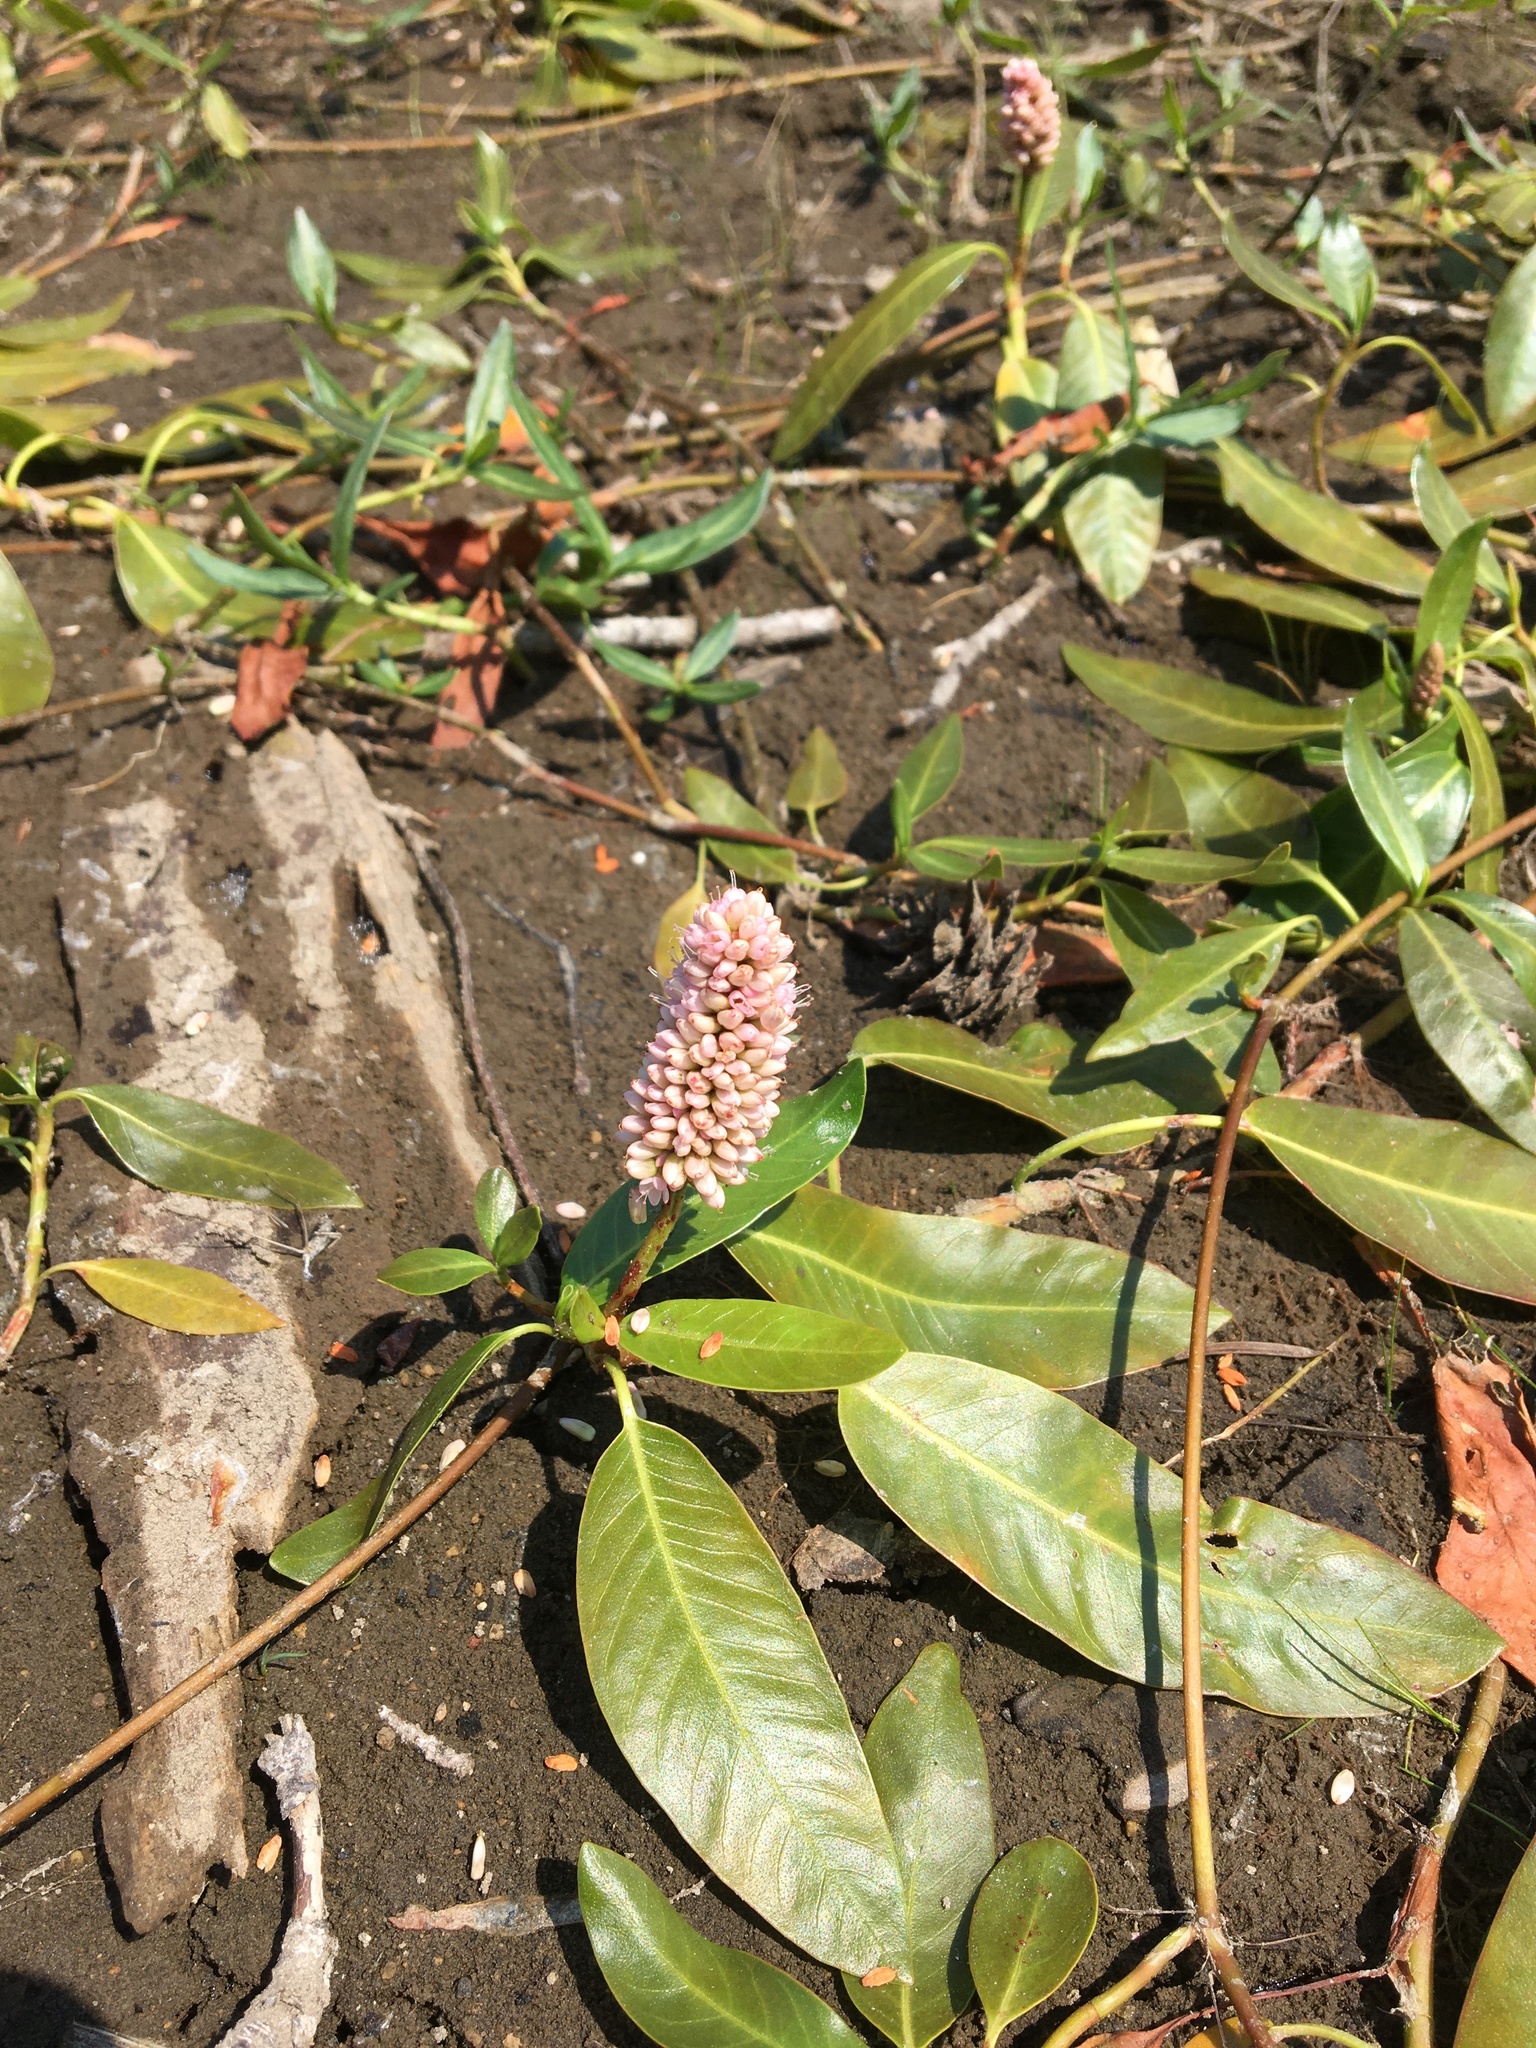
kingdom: Plantae
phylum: Tracheophyta
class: Magnoliopsida
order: Caryophyllales
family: Polygonaceae
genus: Persicaria
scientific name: Persicaria amphibia
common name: Amphibious bistort
